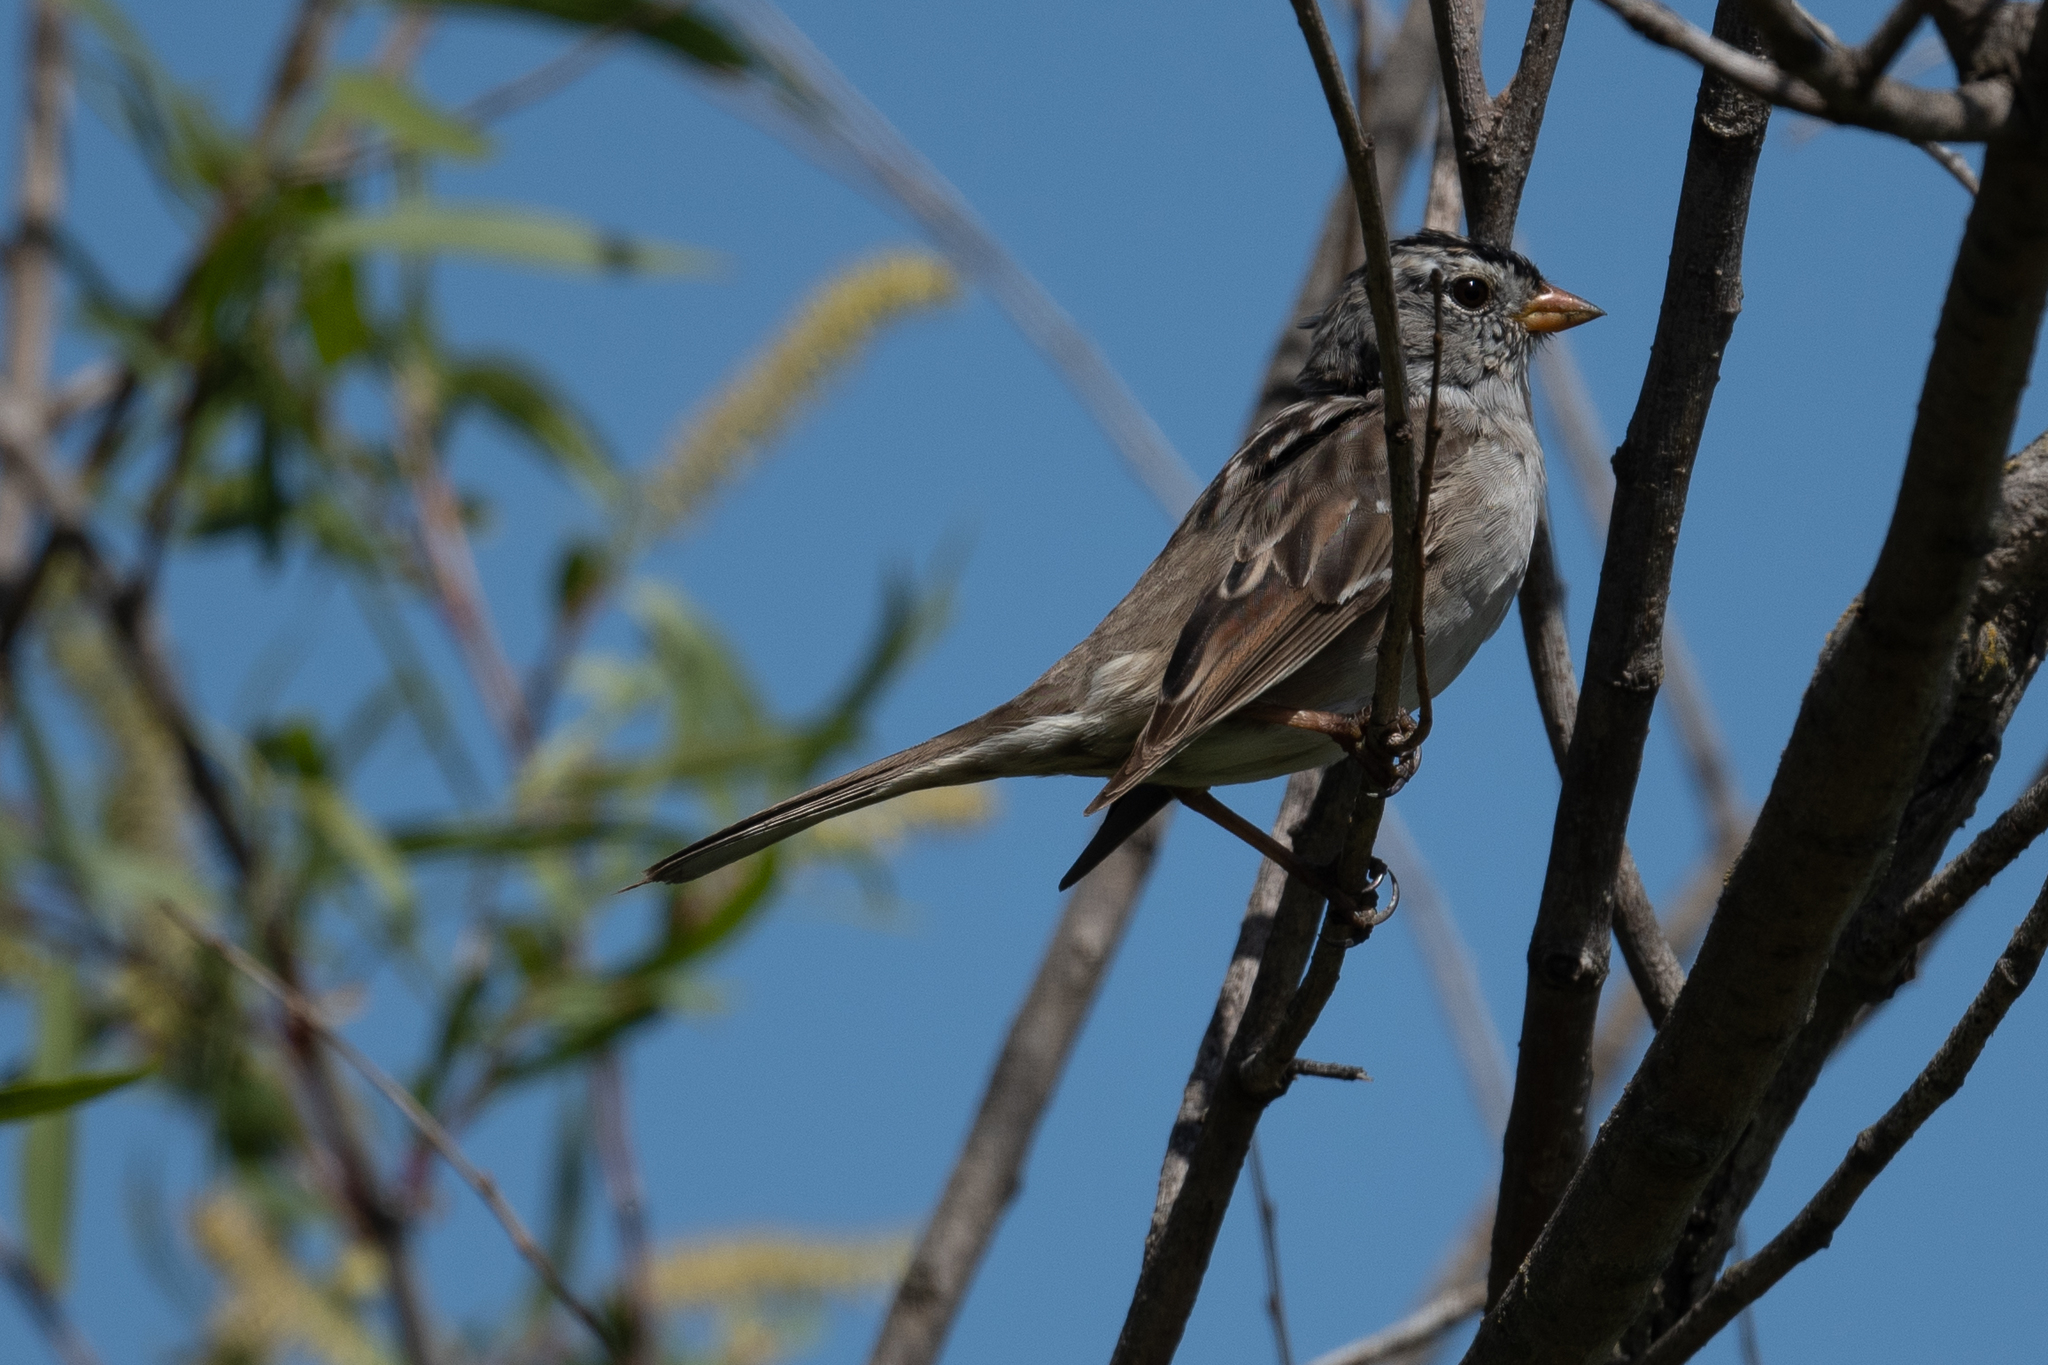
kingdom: Animalia
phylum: Chordata
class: Aves
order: Passeriformes
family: Passerellidae
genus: Zonotrichia
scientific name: Zonotrichia leucophrys
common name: White-crowned sparrow
